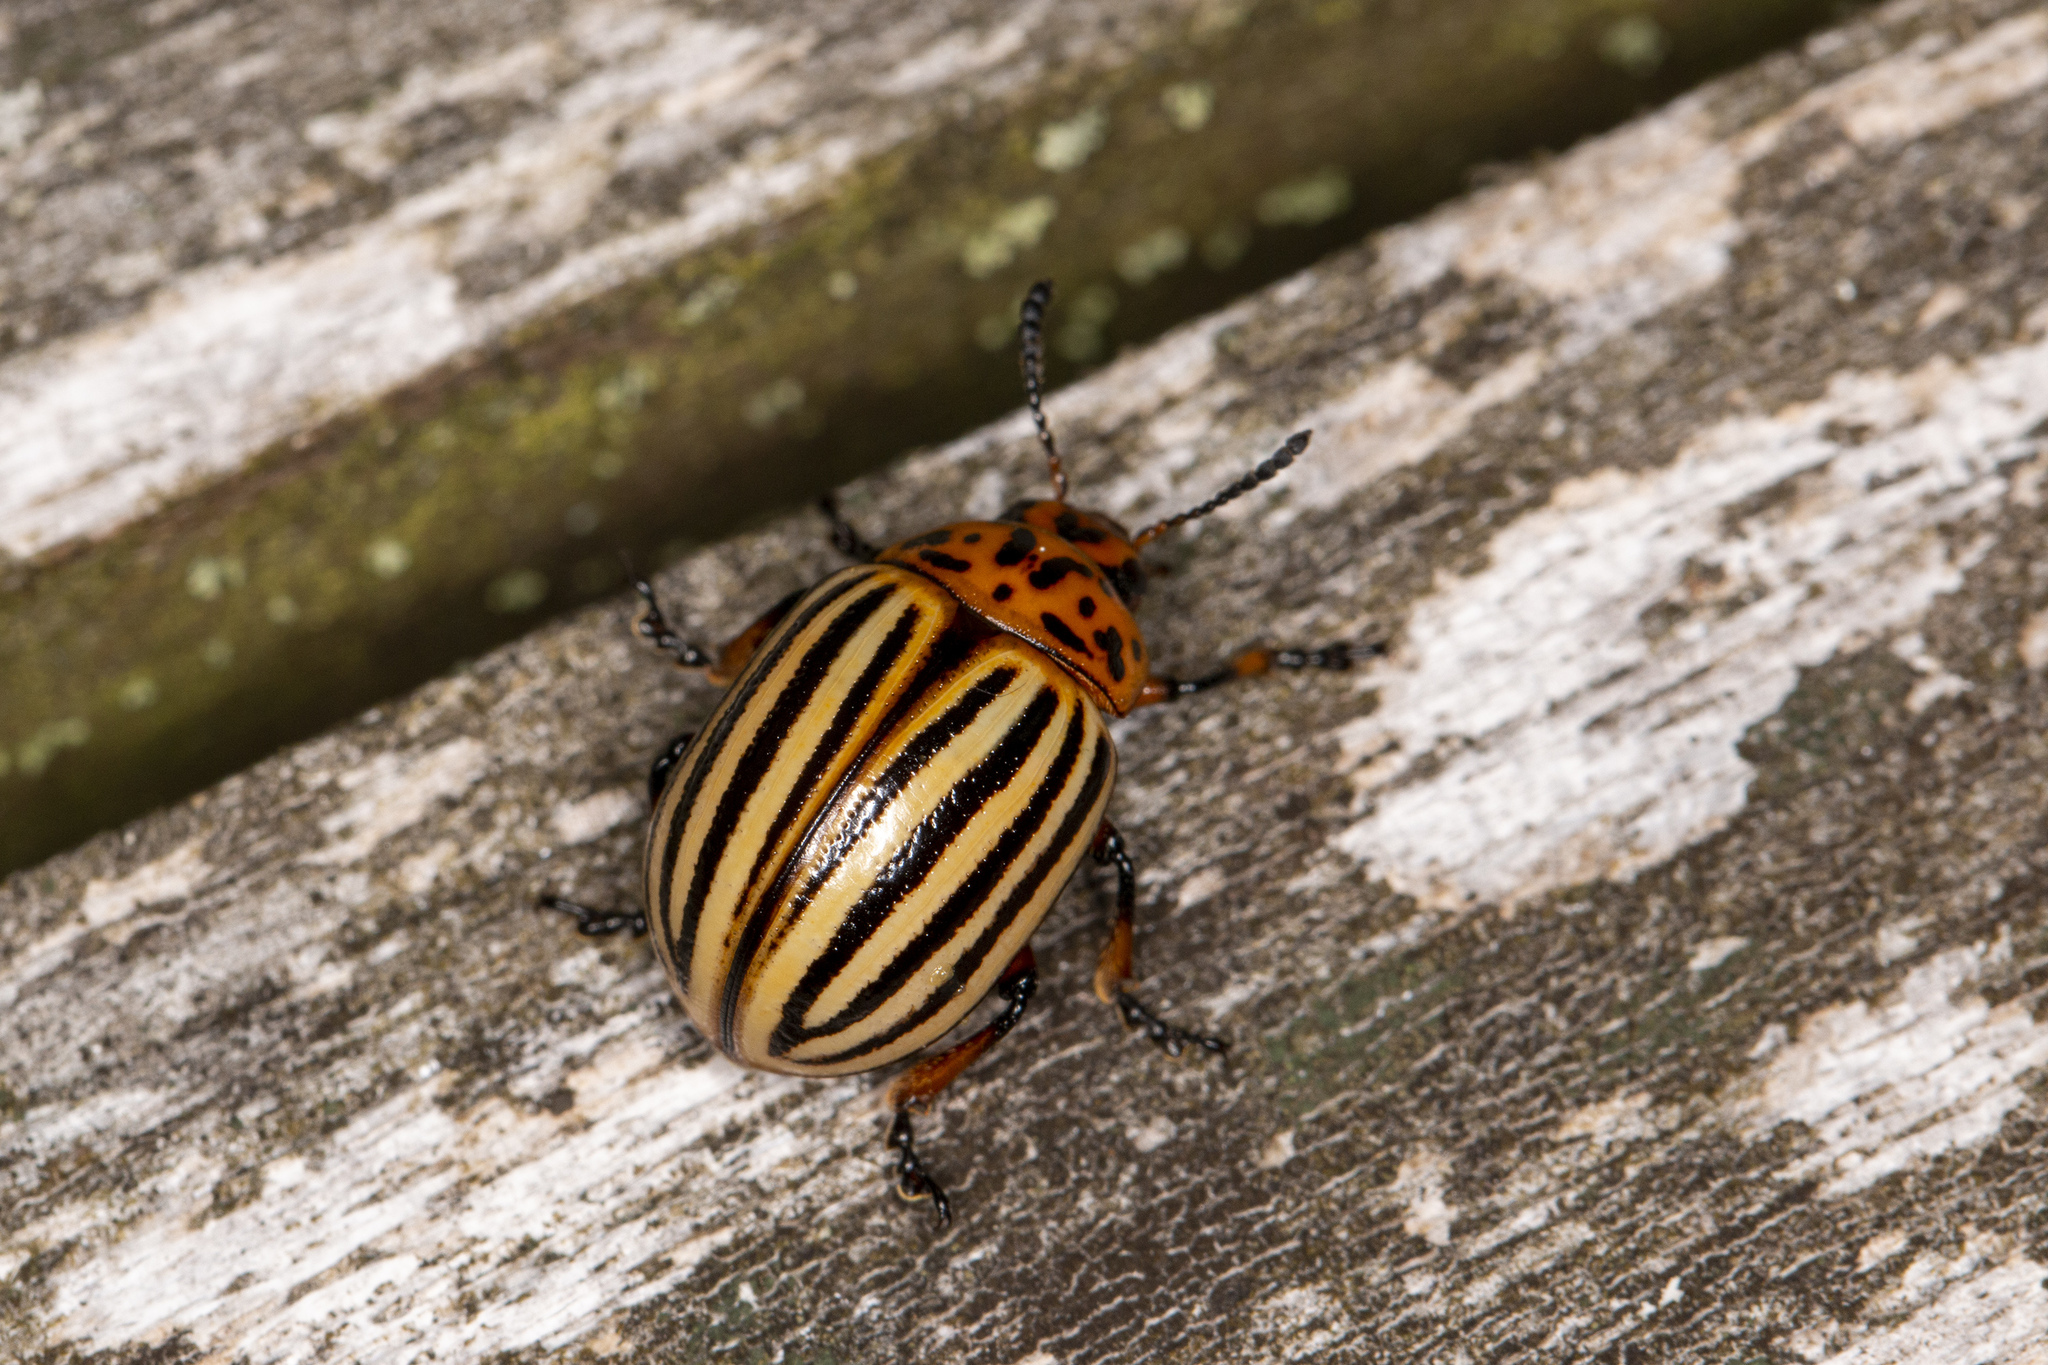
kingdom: Animalia
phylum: Arthropoda
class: Insecta
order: Coleoptera
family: Chrysomelidae
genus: Leptinotarsa
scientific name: Leptinotarsa decemlineata
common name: Colorado potato beetle
